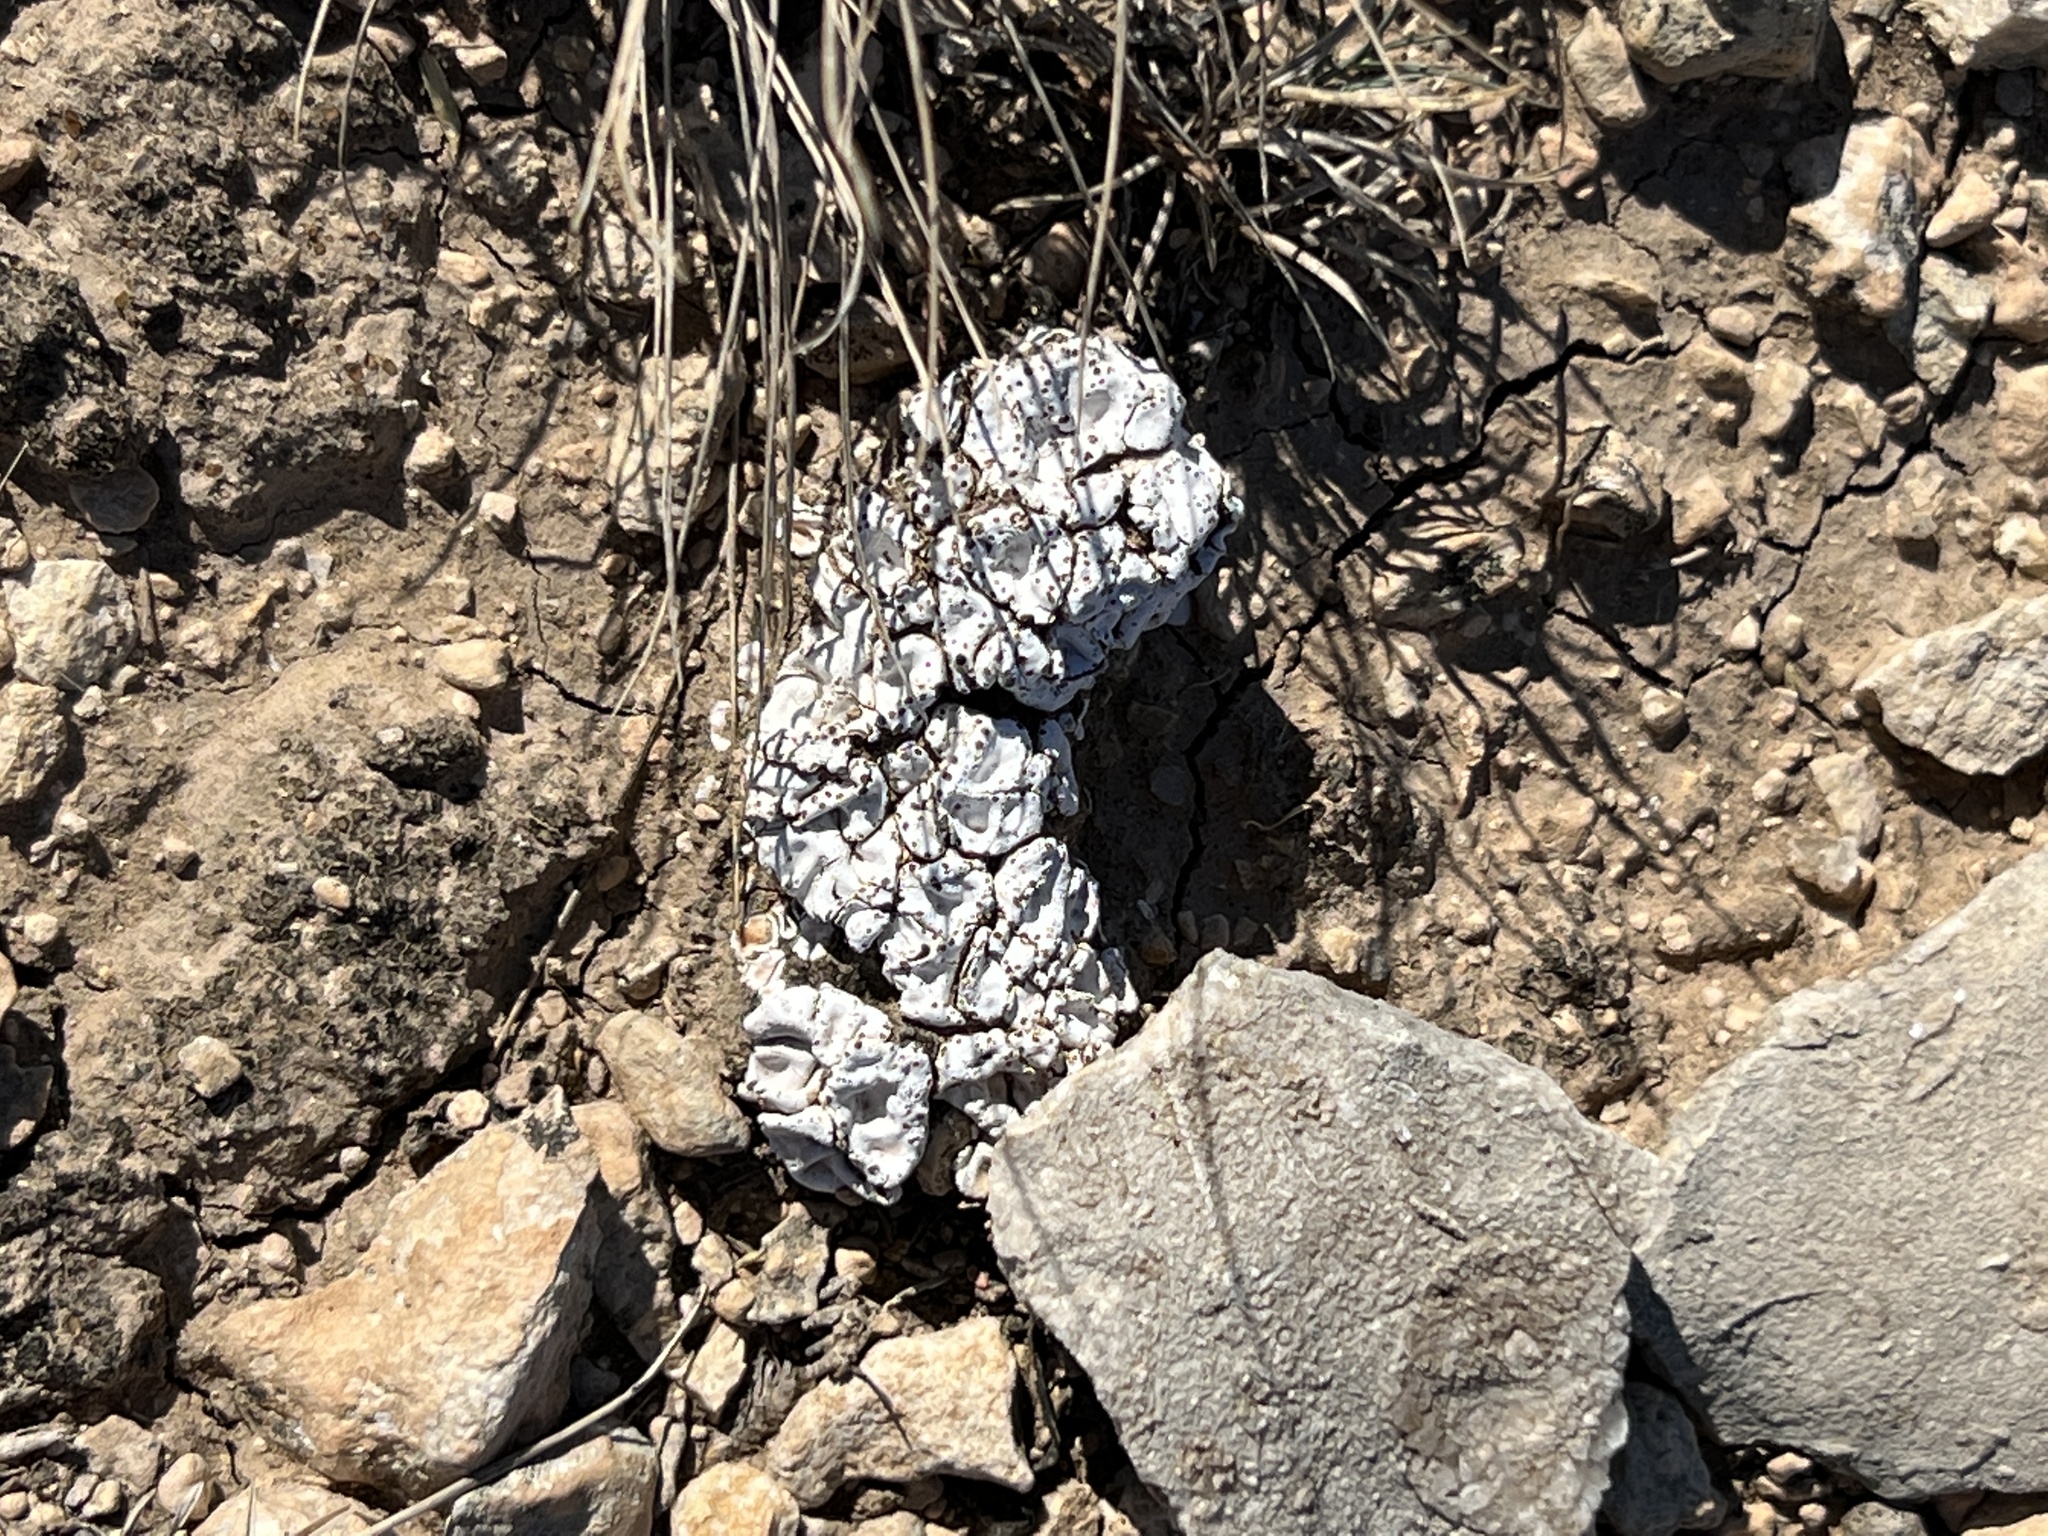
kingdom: Fungi
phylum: Ascomycota
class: Lecanoromycetes
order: Lecanorales
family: Psoraceae
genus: Psora
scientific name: Psora crenata
